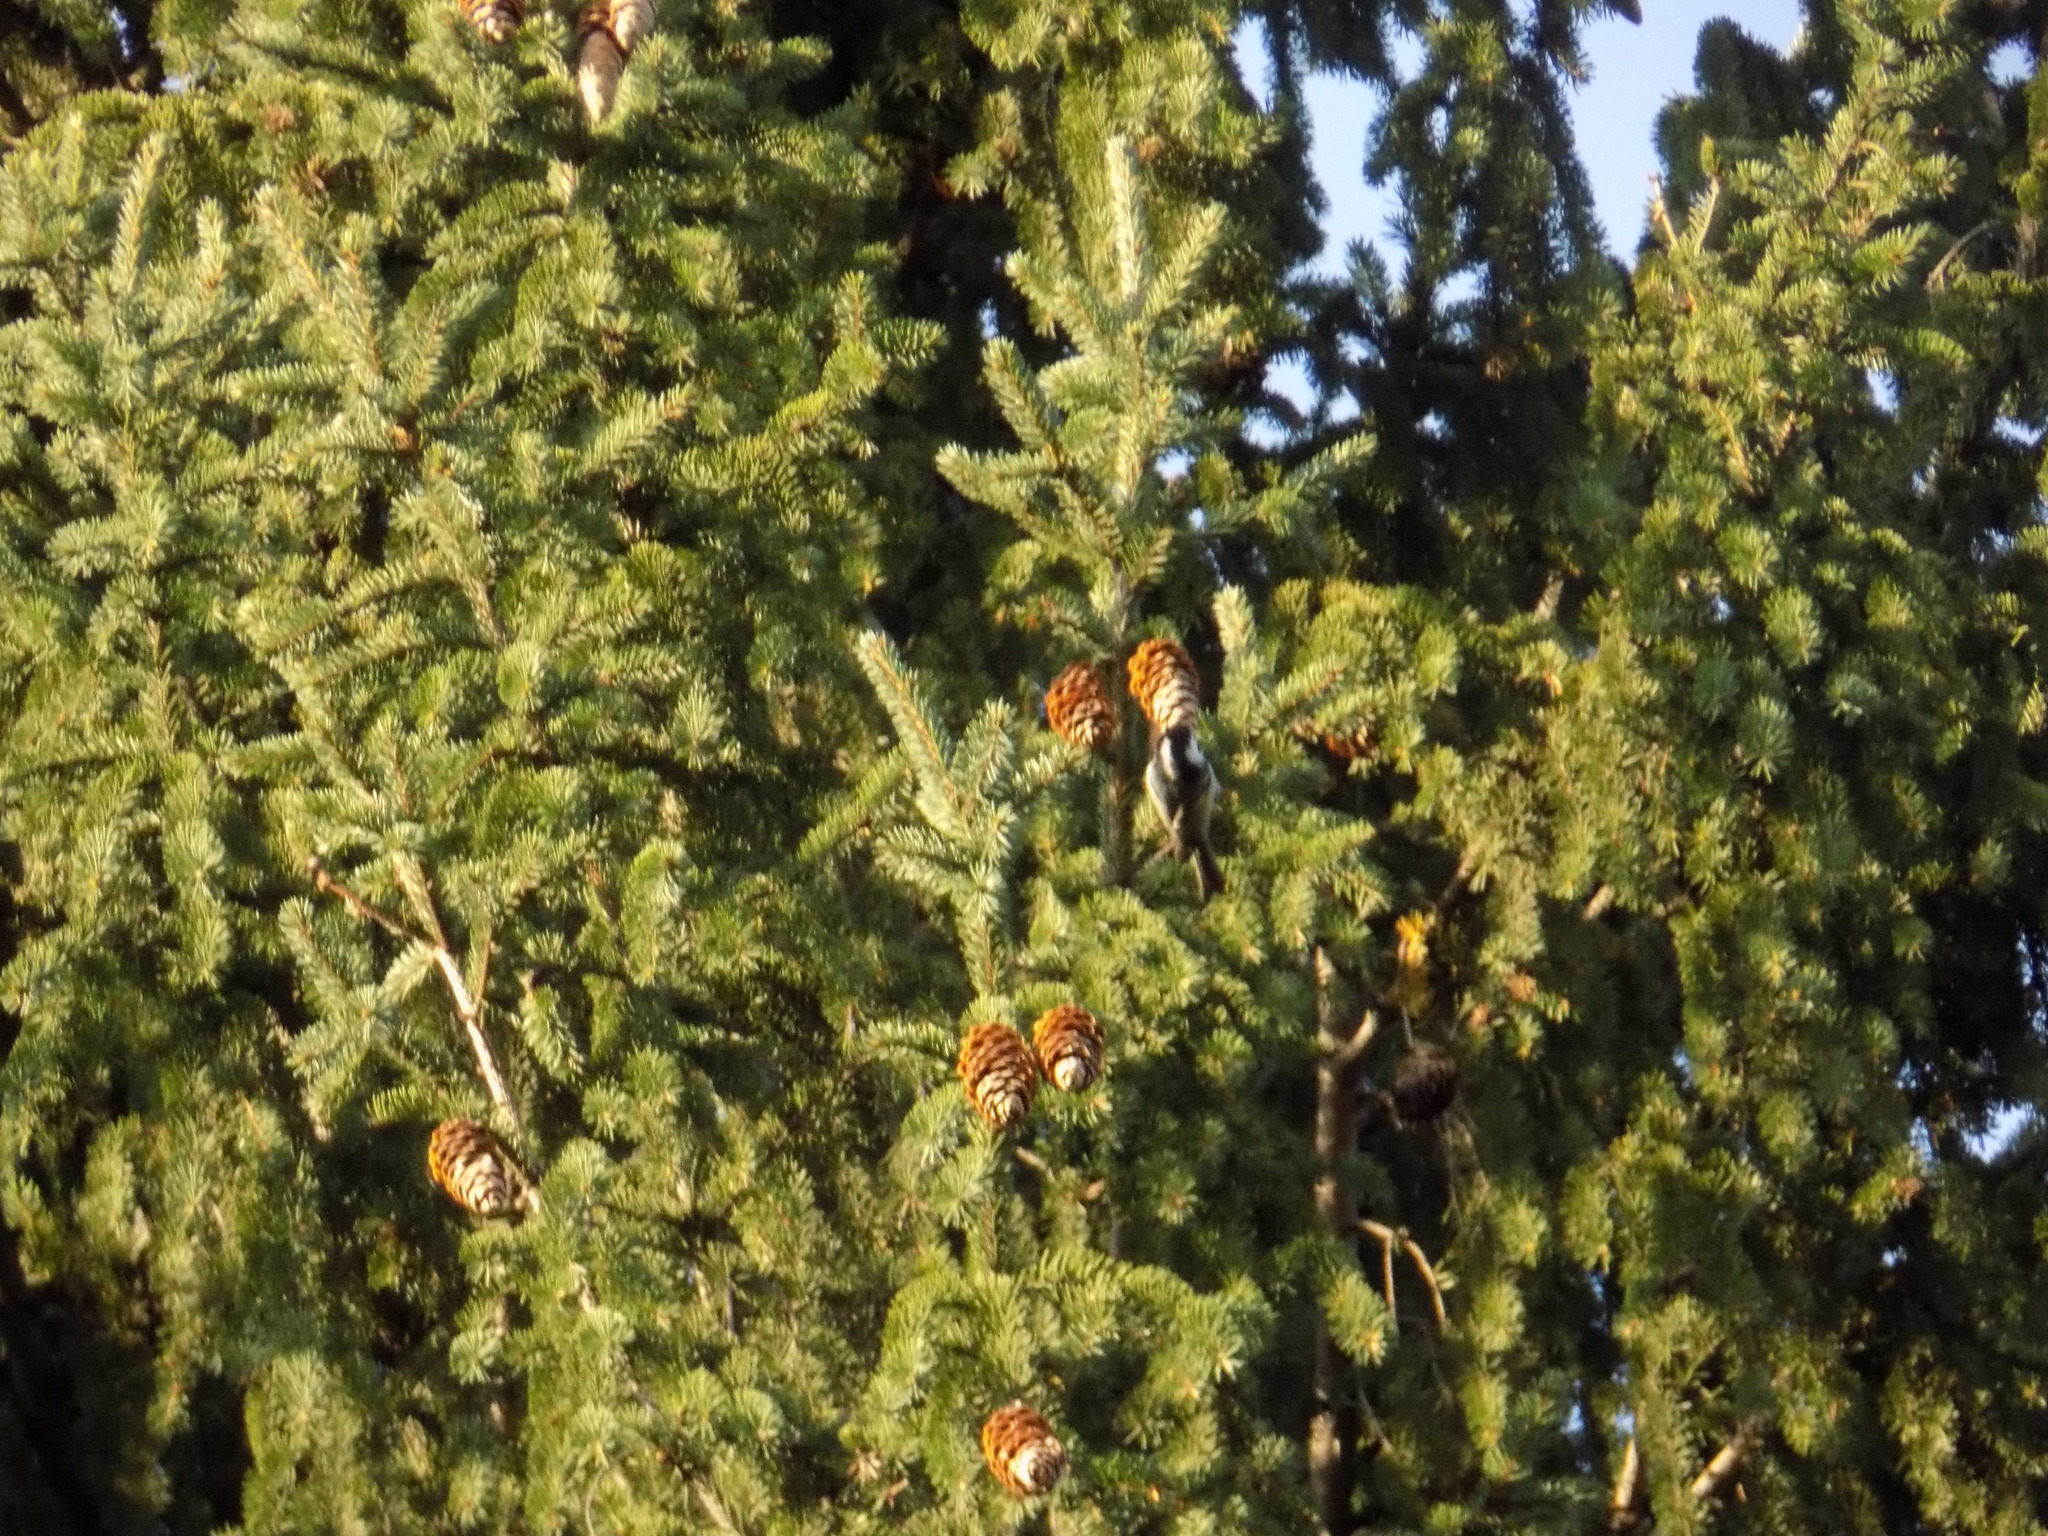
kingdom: Animalia
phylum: Chordata
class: Aves
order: Passeriformes
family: Paridae
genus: Periparus
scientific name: Periparus ater
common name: Coal tit
